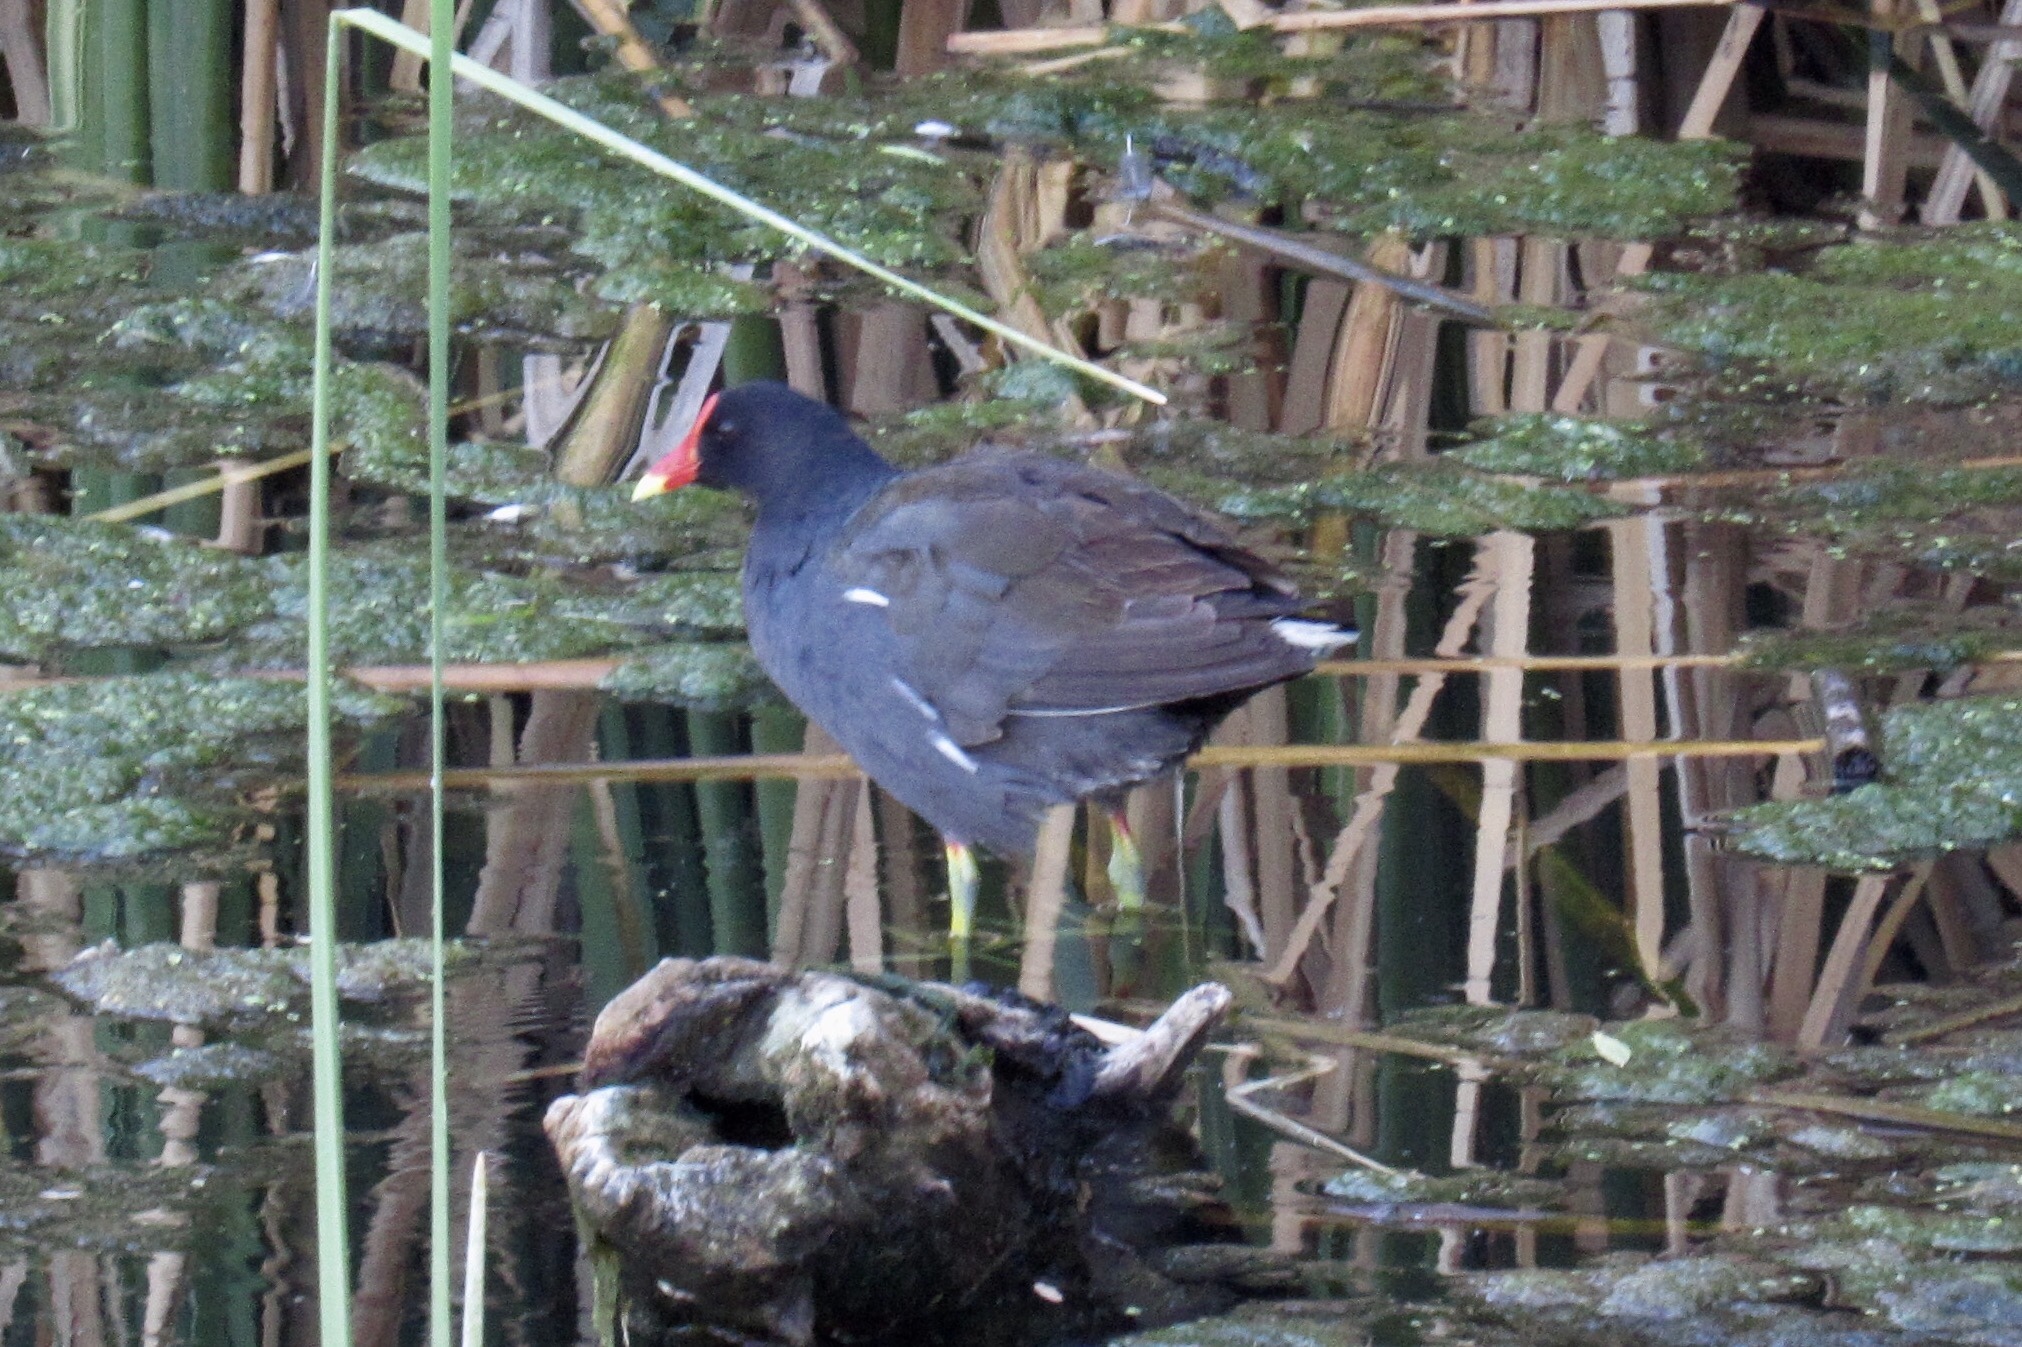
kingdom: Animalia
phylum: Chordata
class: Aves
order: Gruiformes
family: Rallidae
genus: Gallinula
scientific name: Gallinula chloropus
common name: Common moorhen
